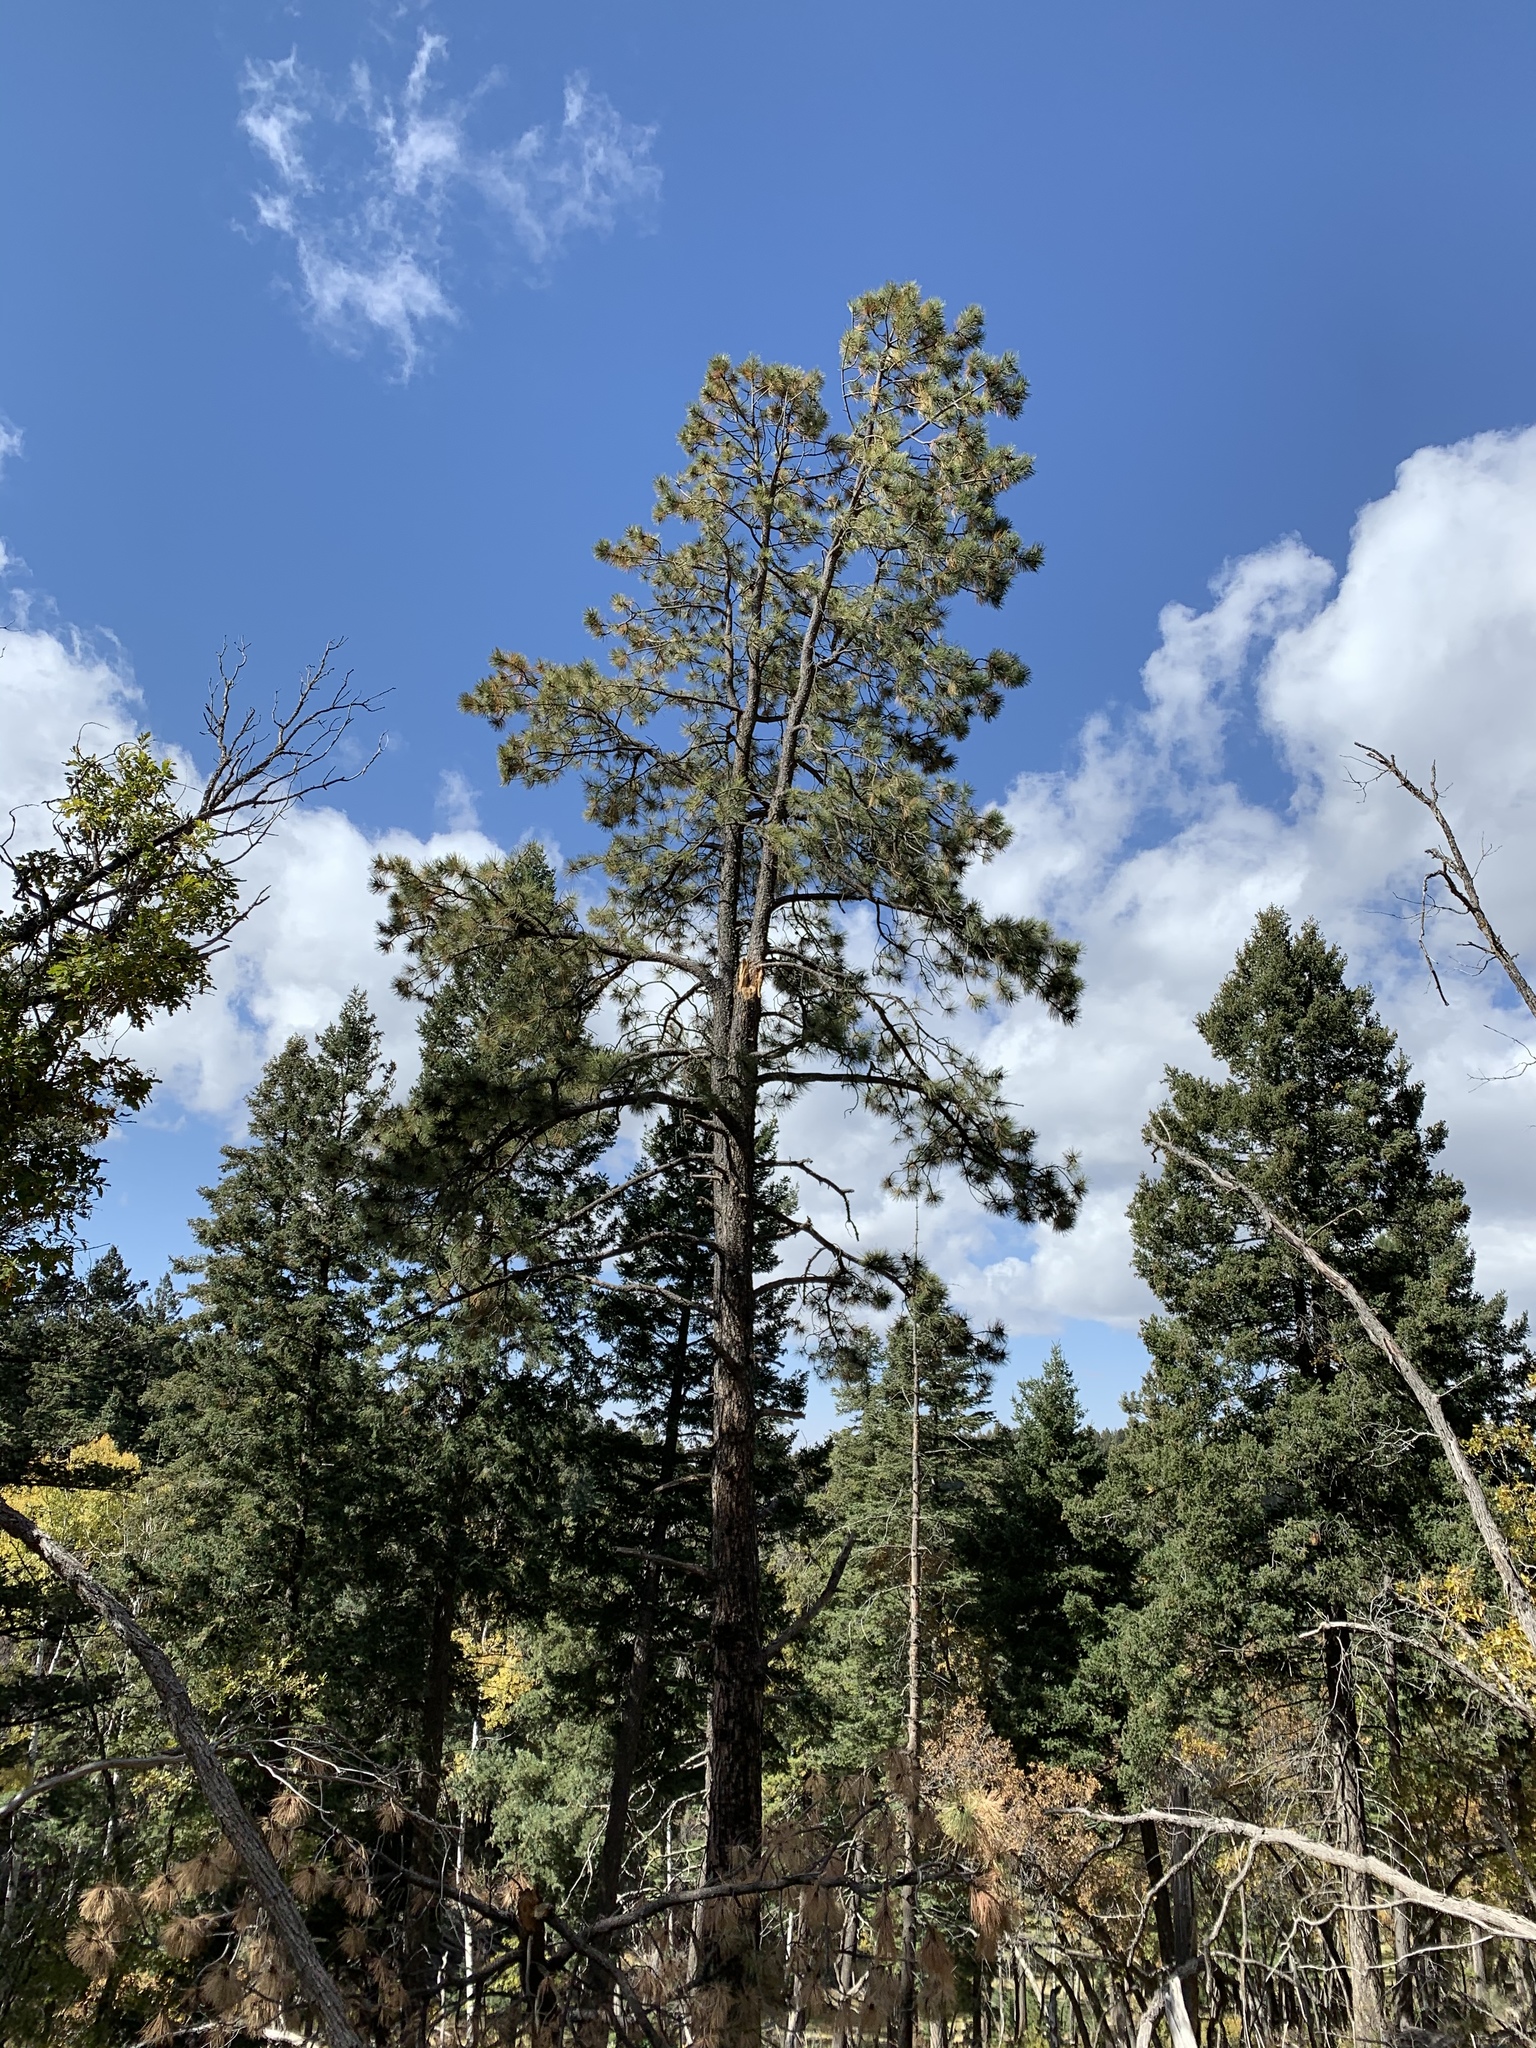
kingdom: Plantae
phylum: Tracheophyta
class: Pinopsida
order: Pinales
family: Pinaceae
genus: Pinus
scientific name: Pinus ponderosa
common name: Western yellow-pine
